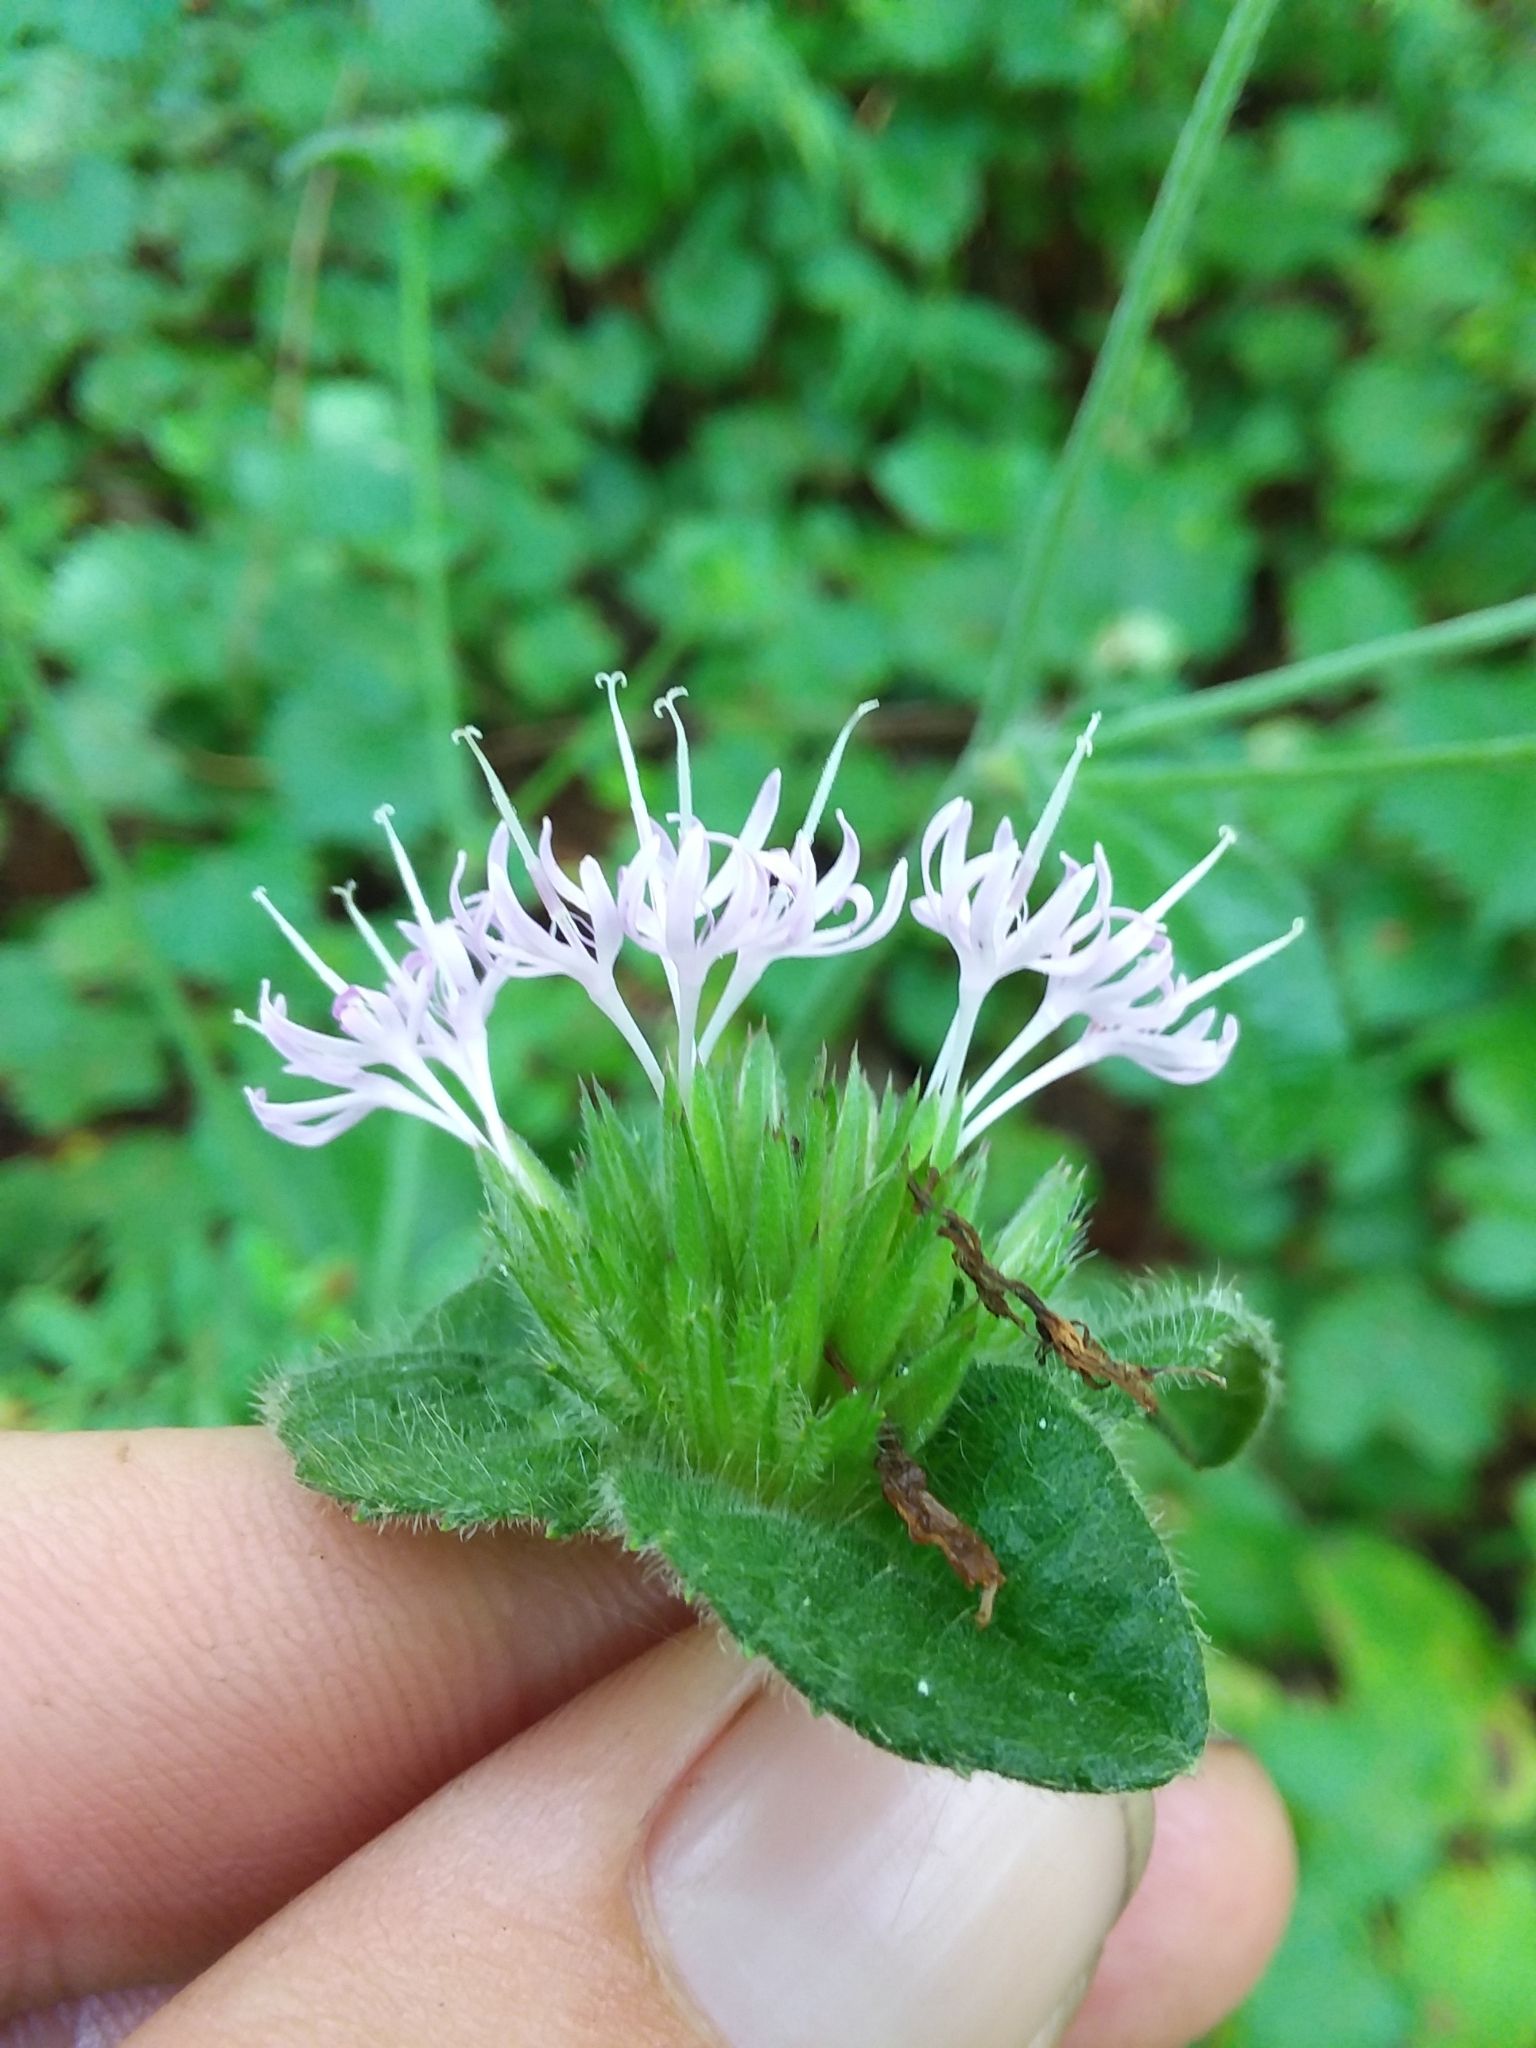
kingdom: Plantae
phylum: Tracheophyta
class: Magnoliopsida
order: Asterales
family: Asteraceae
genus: Elephantopus
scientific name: Elephantopus tomentosus
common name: Tobacco-weed
